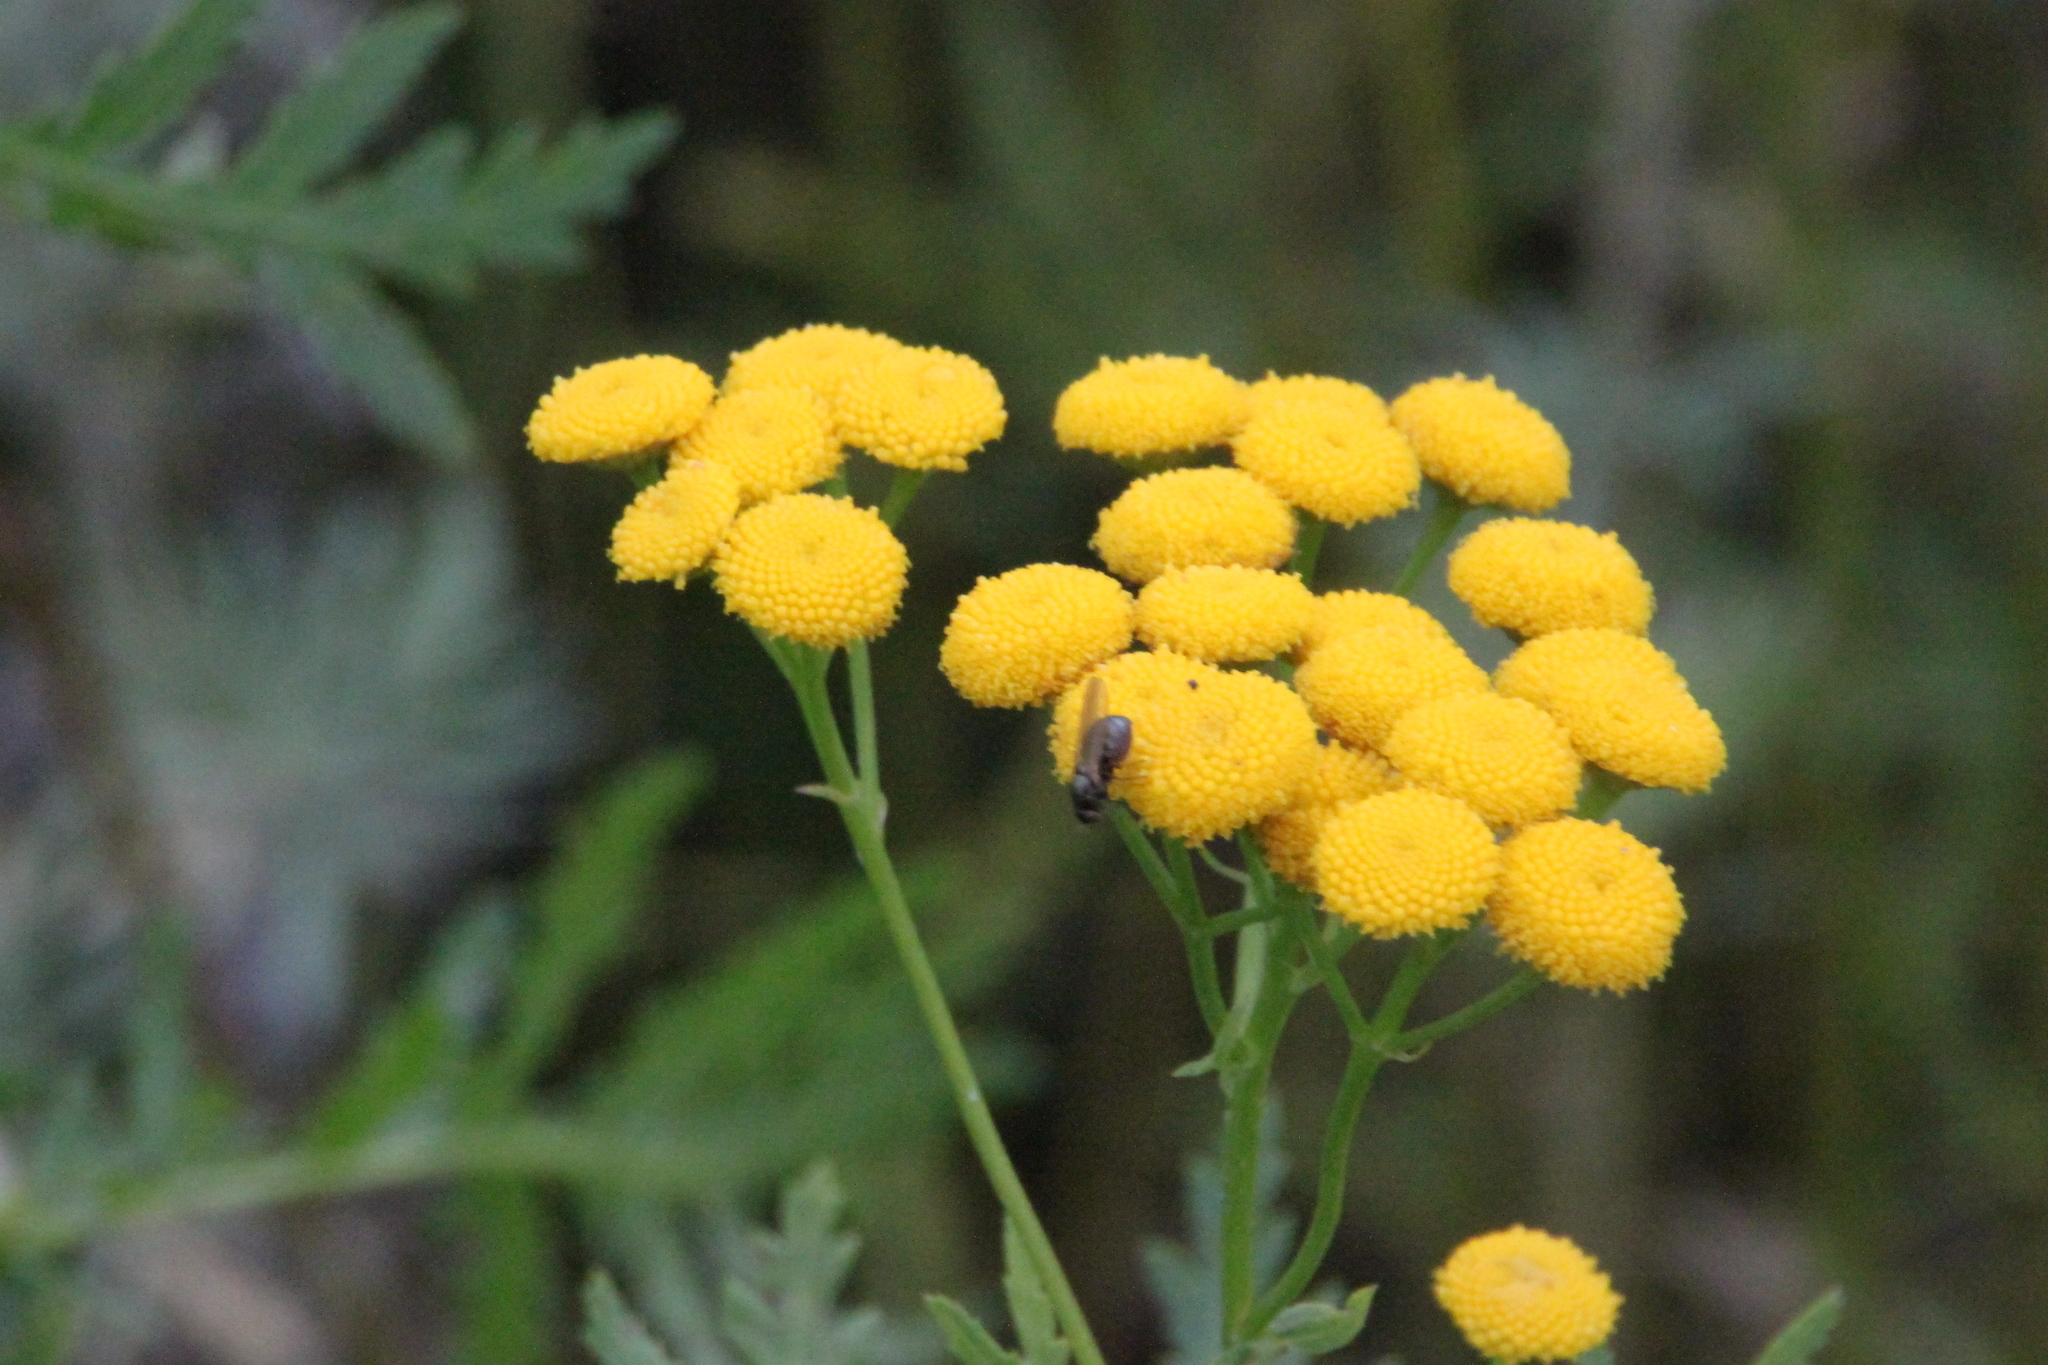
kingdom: Plantae
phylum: Tracheophyta
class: Magnoliopsida
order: Asterales
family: Asteraceae
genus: Tanacetum
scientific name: Tanacetum vulgare
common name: Common tansy
